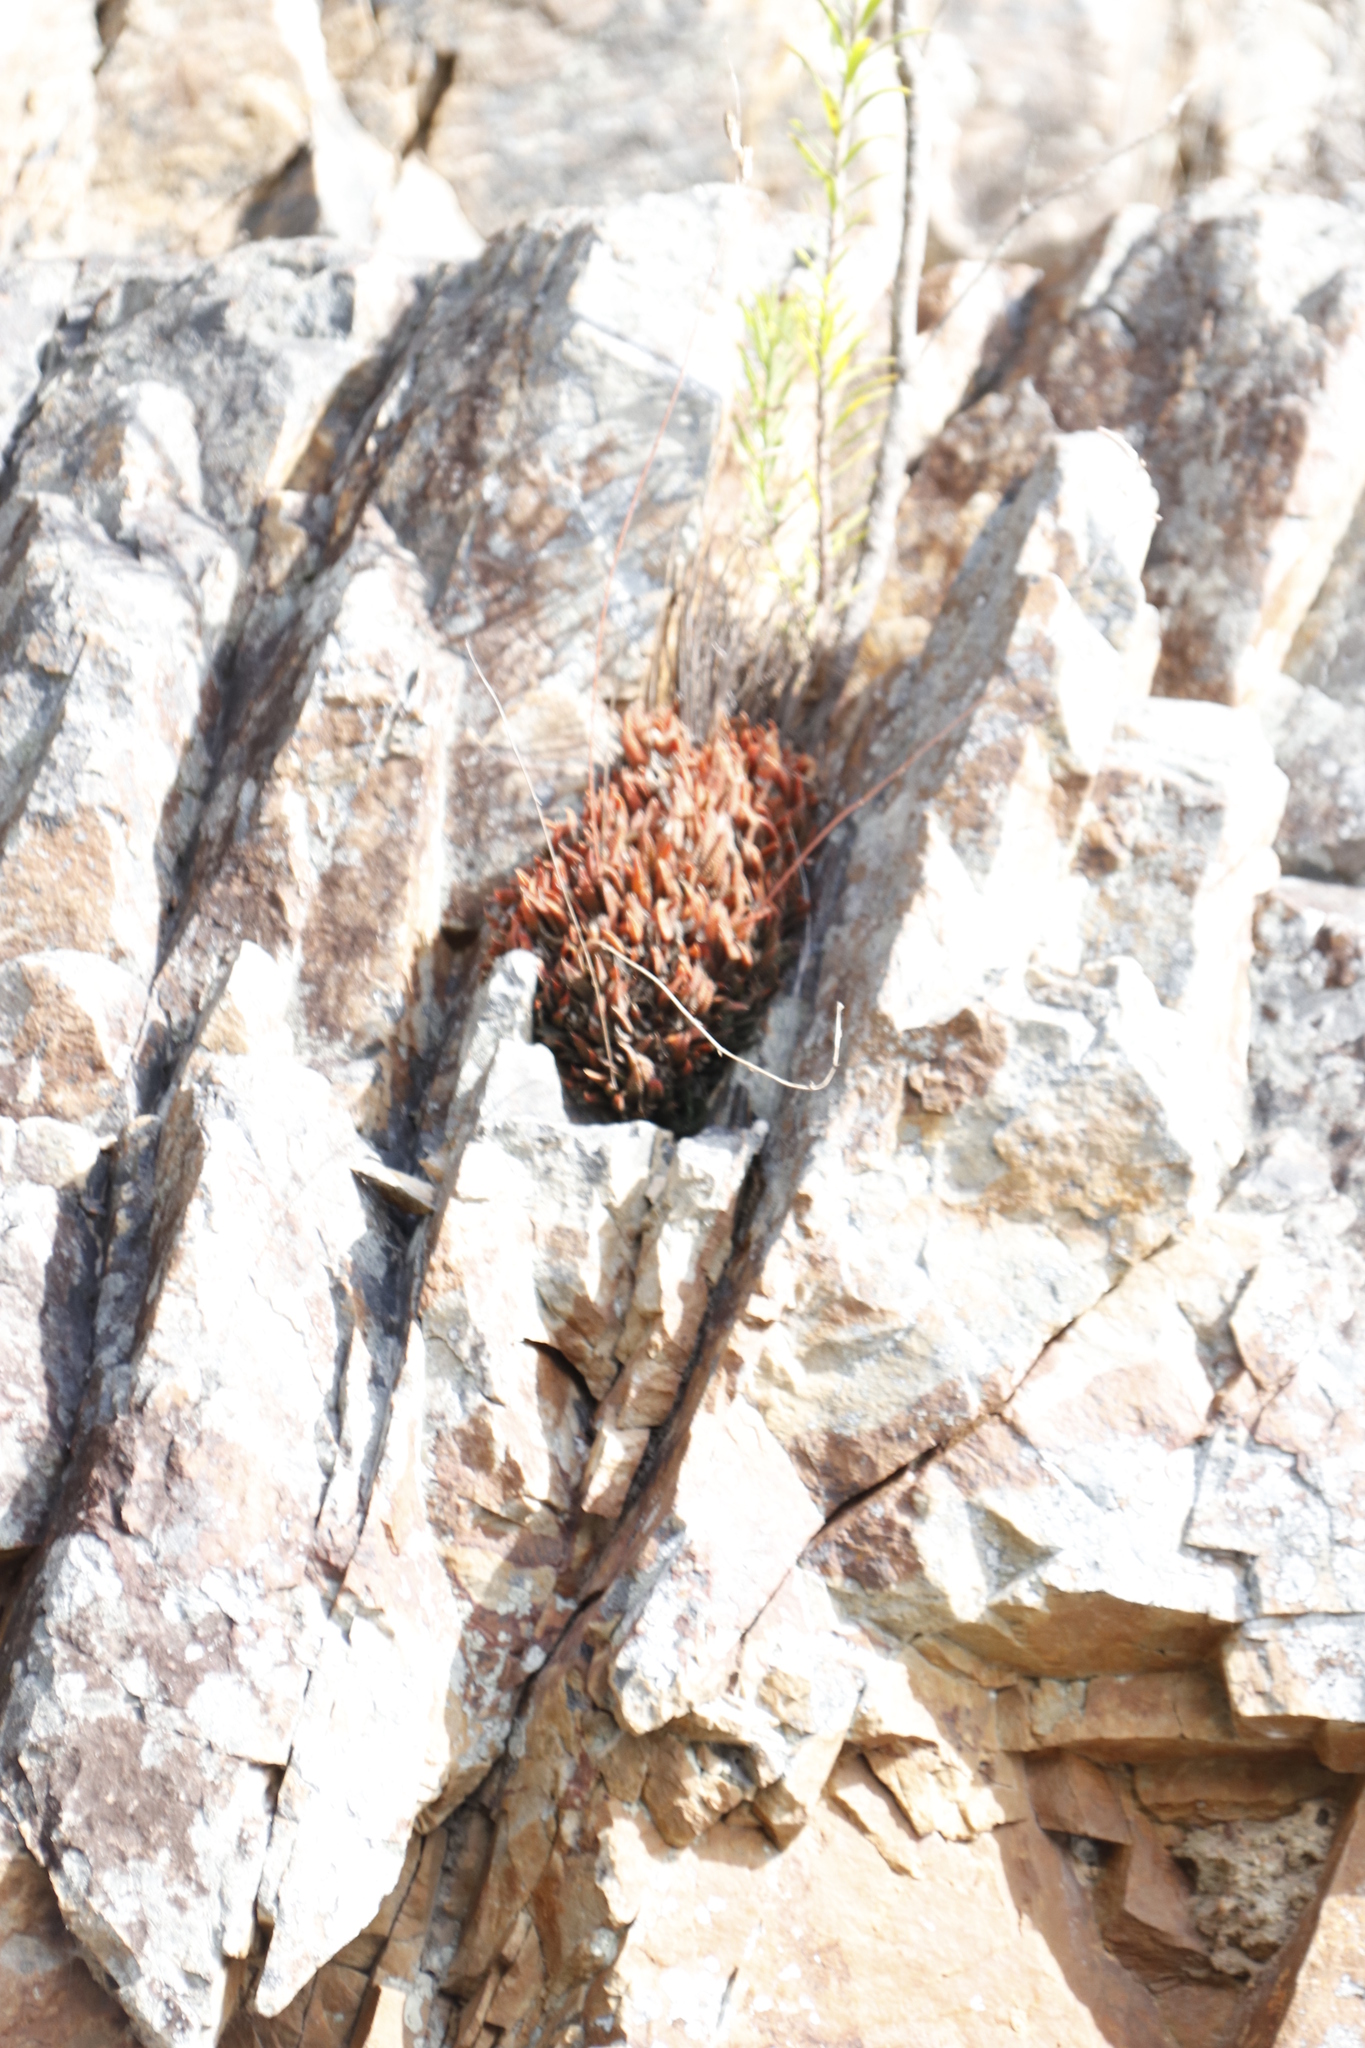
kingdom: Plantae
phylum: Tracheophyta
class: Liliopsida
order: Asparagales
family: Asphodelaceae
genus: Haworthiopsis
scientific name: Haworthiopsis scabra
